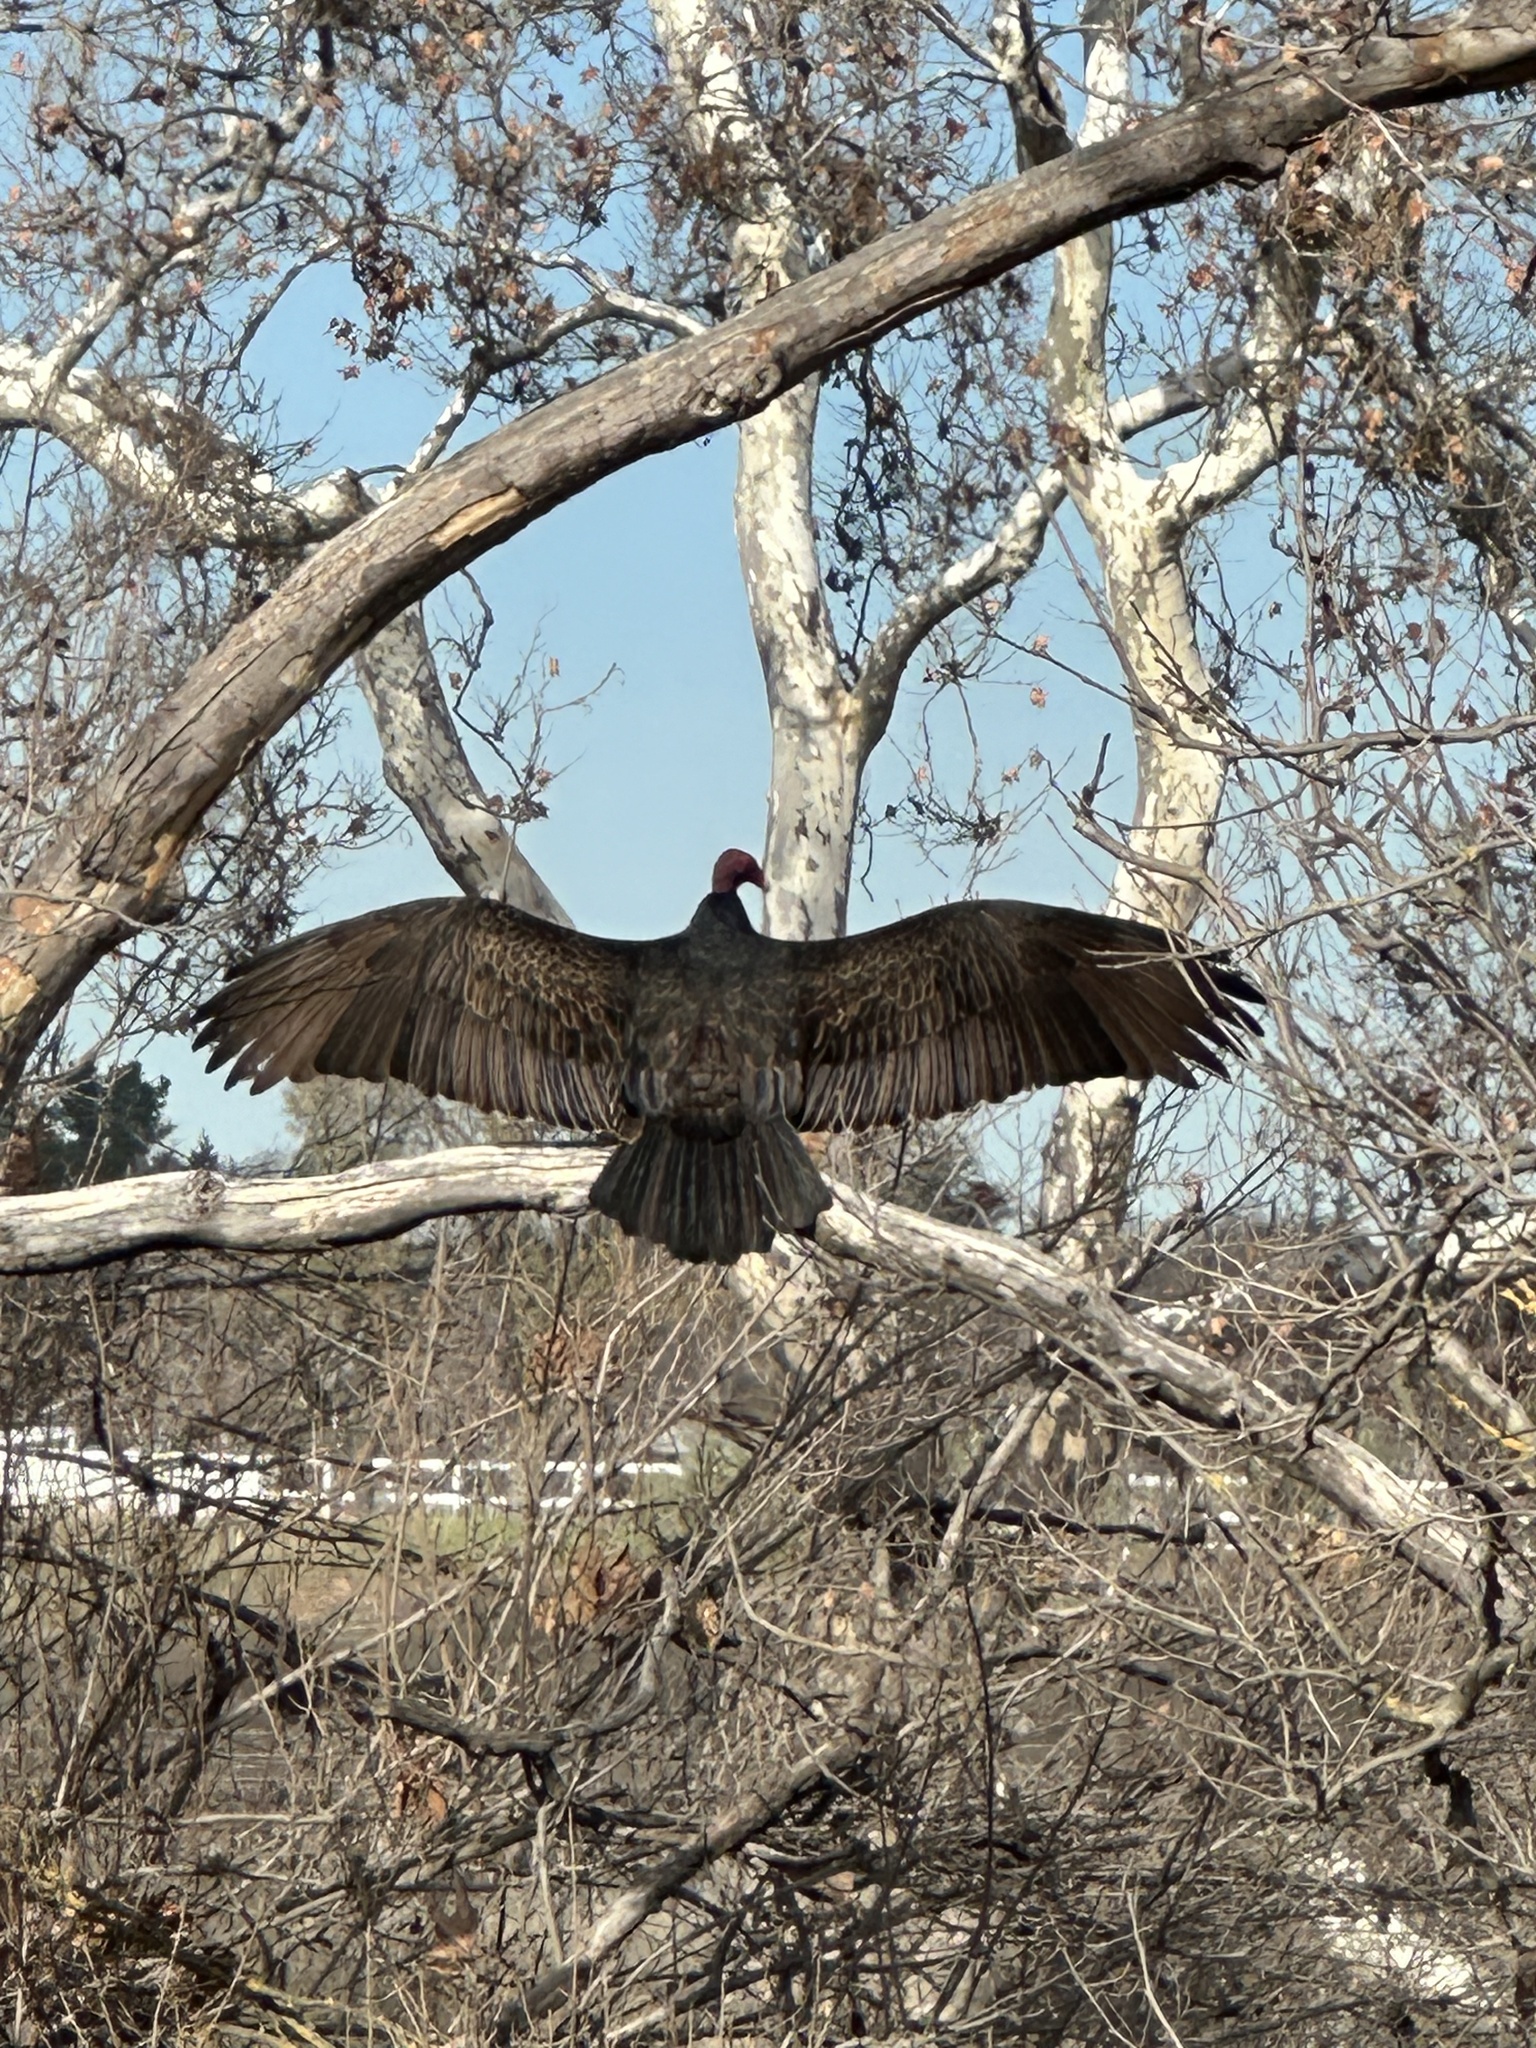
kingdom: Animalia
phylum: Chordata
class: Aves
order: Accipitriformes
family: Cathartidae
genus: Cathartes
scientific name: Cathartes aura
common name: Turkey vulture
